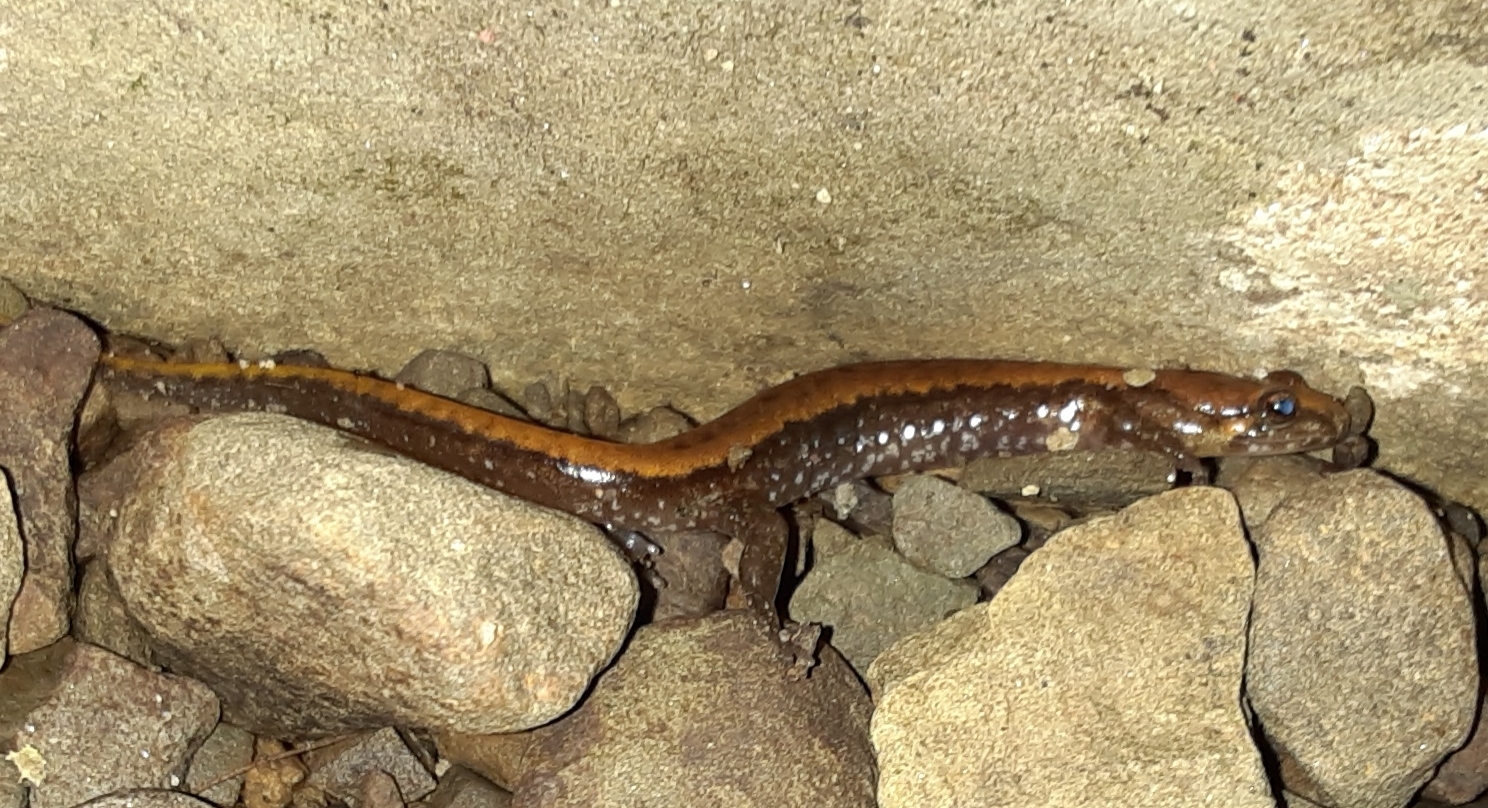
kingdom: Animalia
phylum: Chordata
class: Amphibia
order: Caudata
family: Plethodontidae
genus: Desmognathus
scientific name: Desmognathus ochrophaeus
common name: Allegheny mountain dusky salamander
